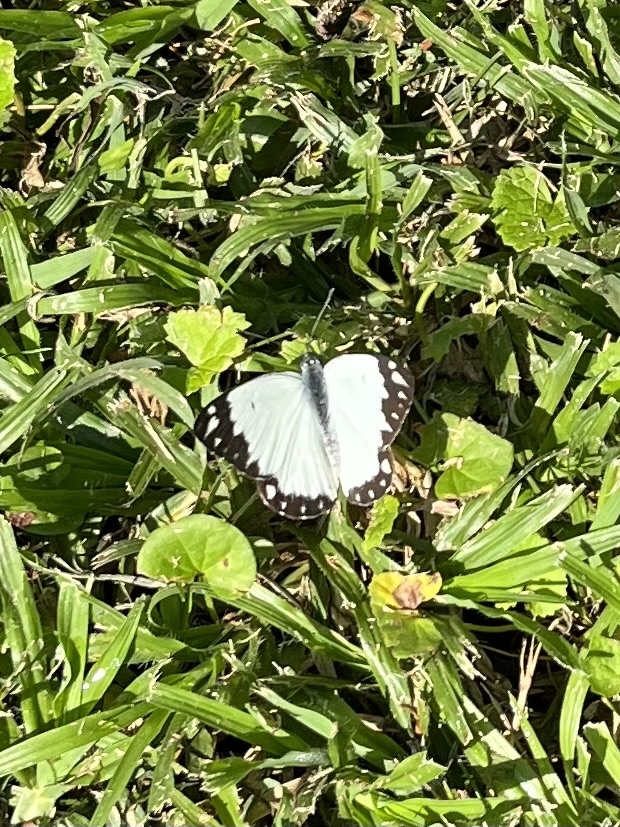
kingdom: Animalia
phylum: Arthropoda
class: Insecta
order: Lepidoptera
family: Pieridae
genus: Belenois
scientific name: Belenois creona
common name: African caper white
